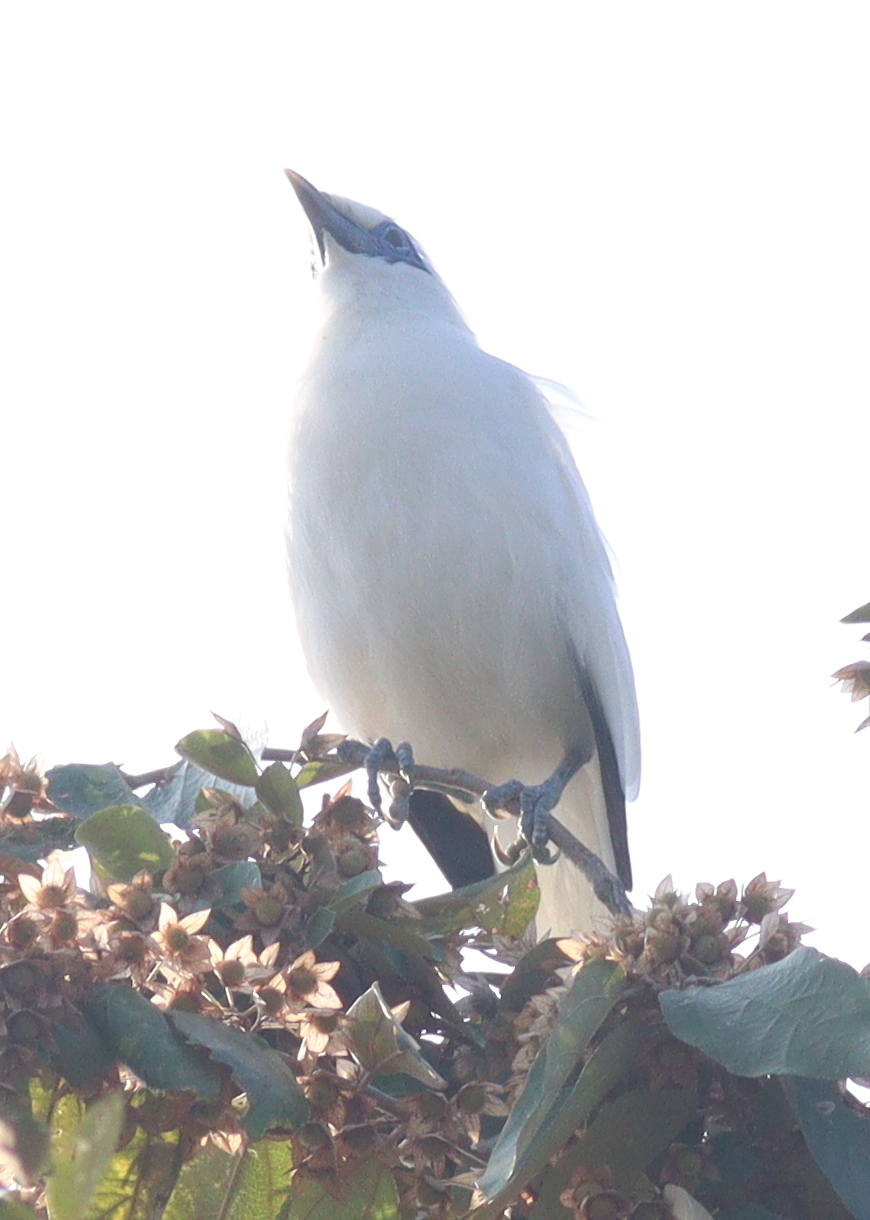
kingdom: Animalia
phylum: Chordata
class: Aves
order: Passeriformes
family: Sturnidae
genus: Leucopsar
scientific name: Leucopsar rothschildi
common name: Bali myna
